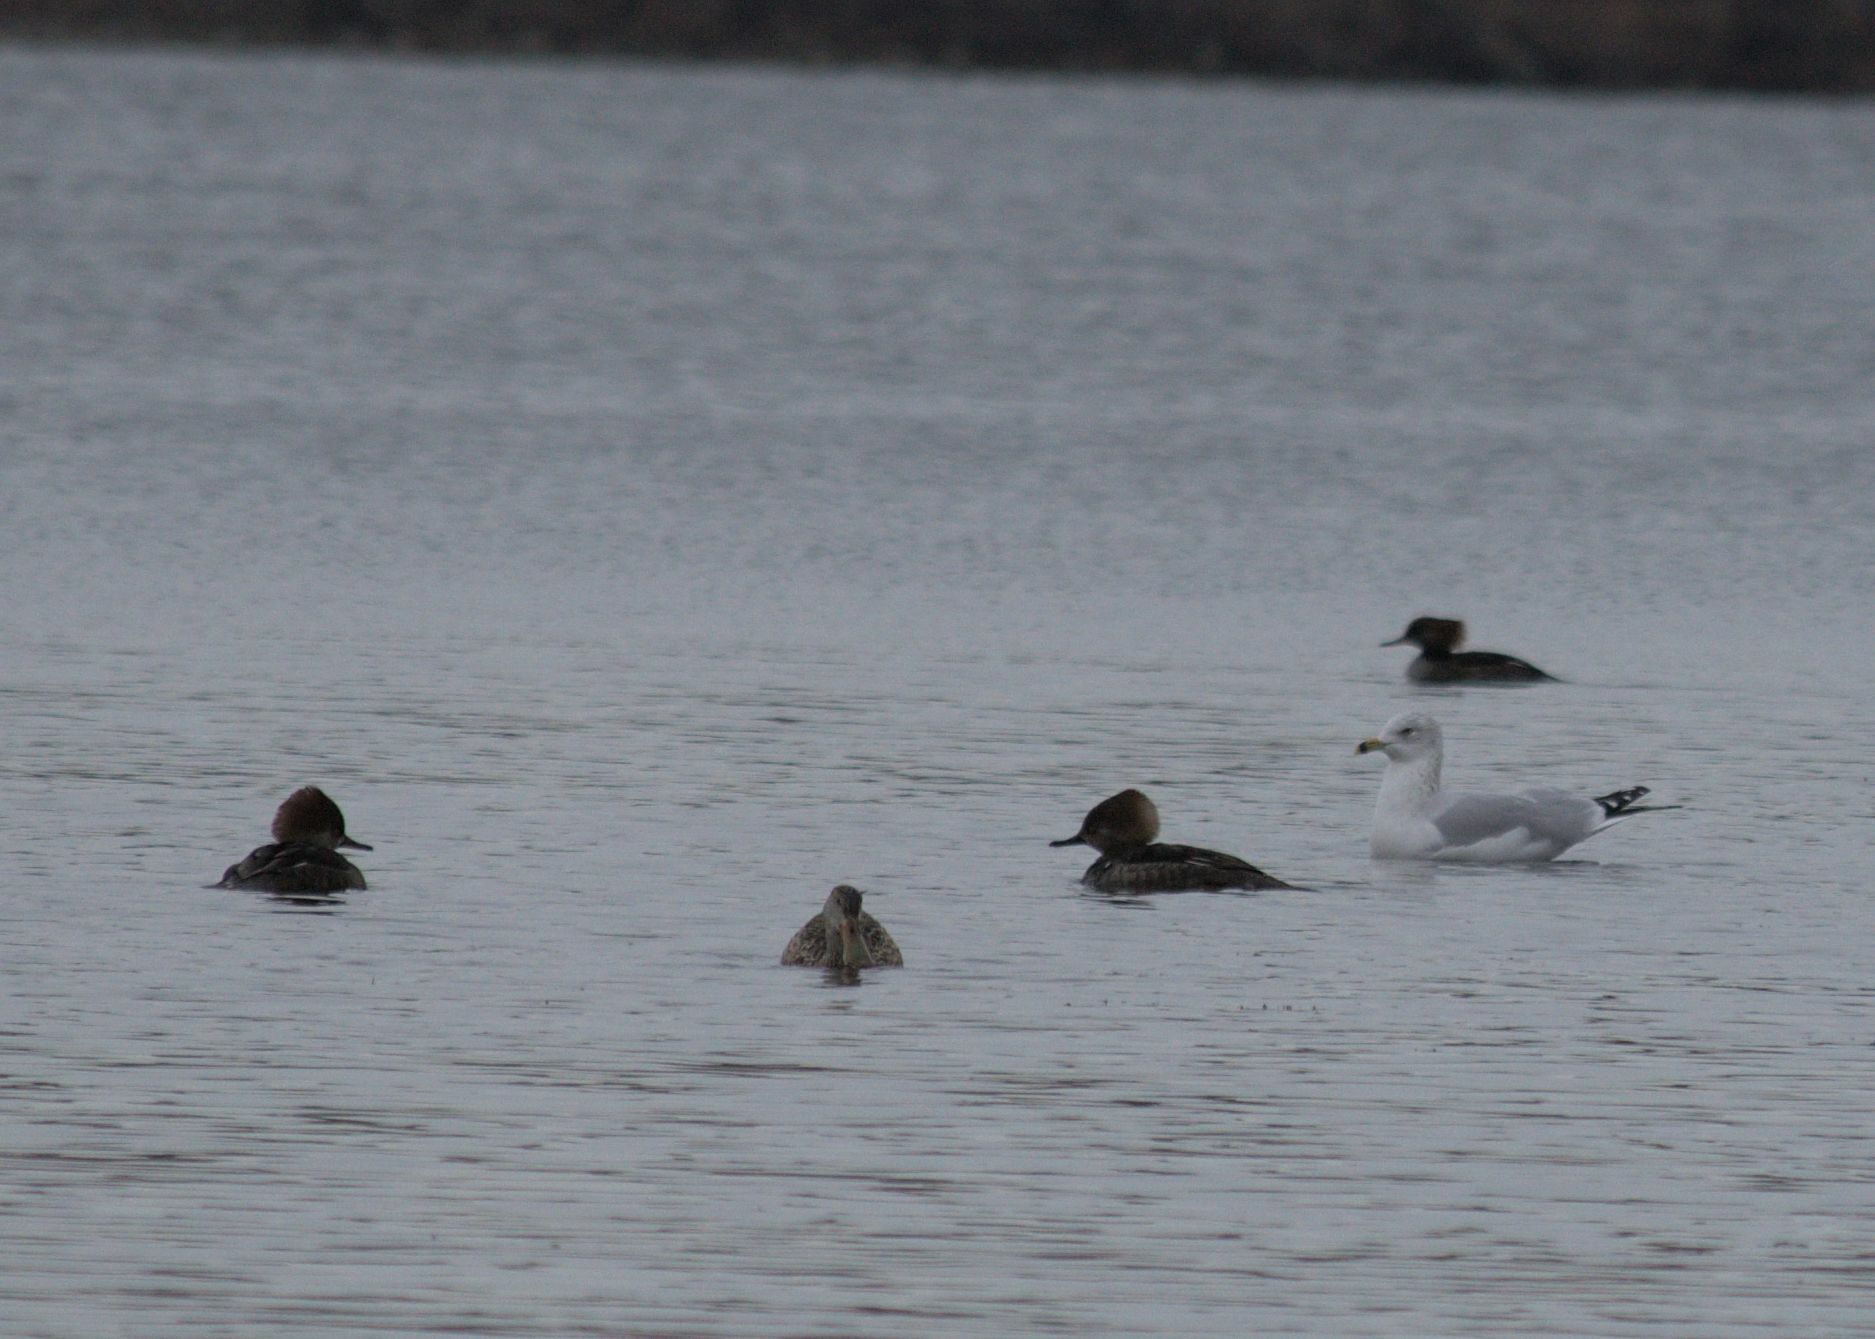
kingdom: Animalia
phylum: Chordata
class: Aves
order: Anseriformes
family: Anatidae
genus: Spatula
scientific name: Spatula clypeata
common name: Northern shoveler
